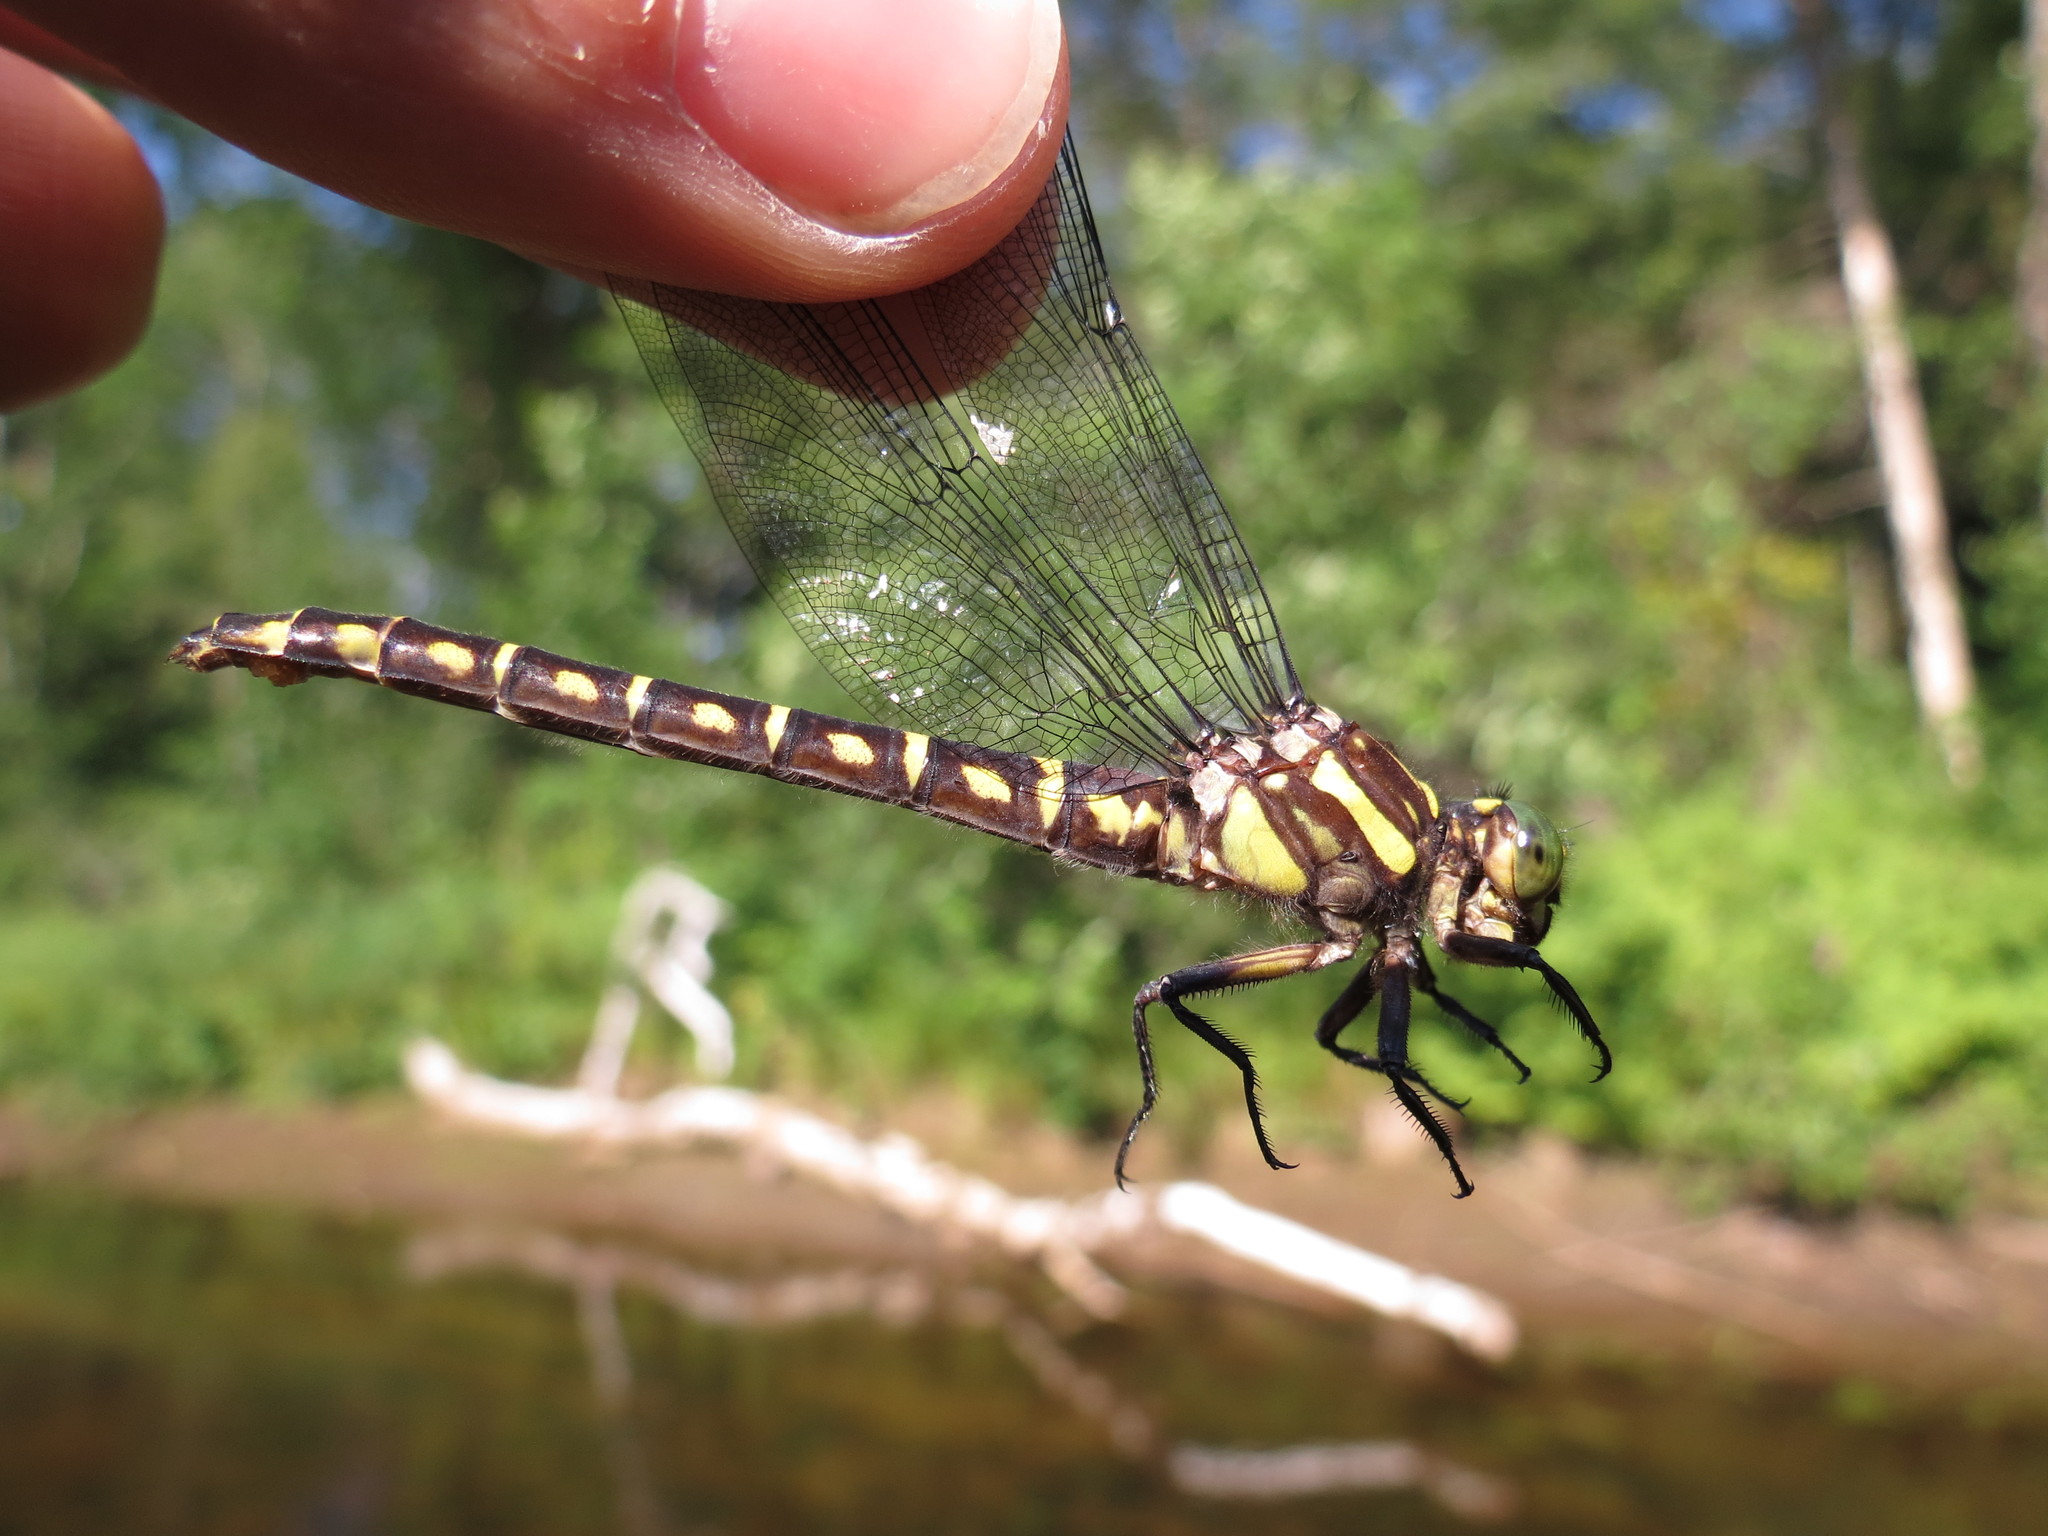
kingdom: Animalia
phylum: Arthropoda
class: Insecta
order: Odonata
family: Gomphidae
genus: Stylurus
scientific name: Stylurus scudderi
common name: Zebra clubtail
